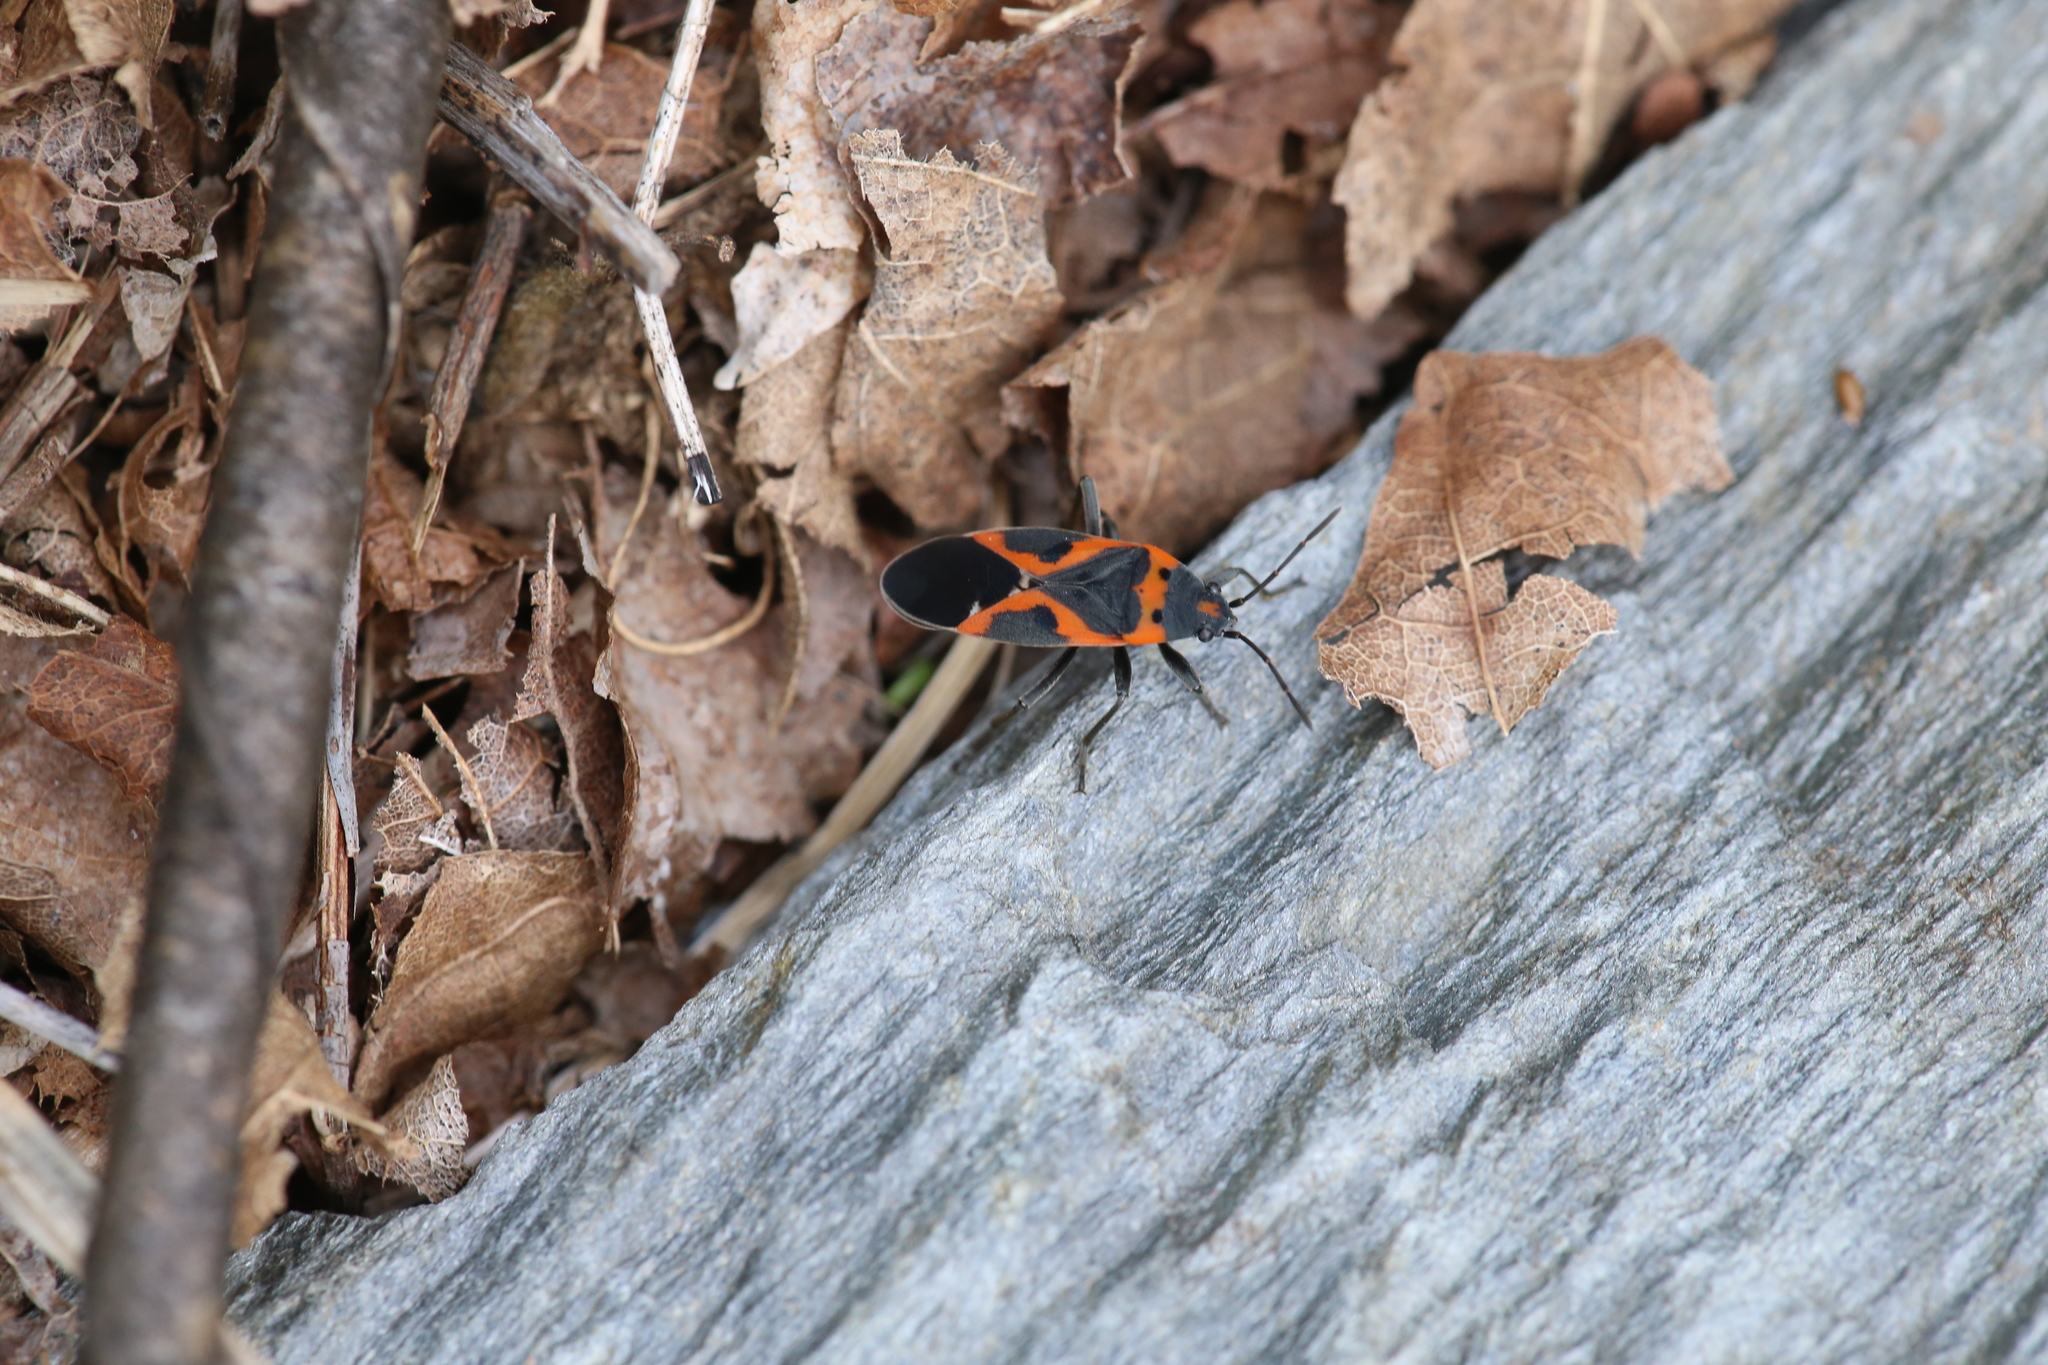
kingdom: Animalia
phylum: Arthropoda
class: Insecta
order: Hemiptera
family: Lygaeidae
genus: Lygaeus
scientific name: Lygaeus kalmii
